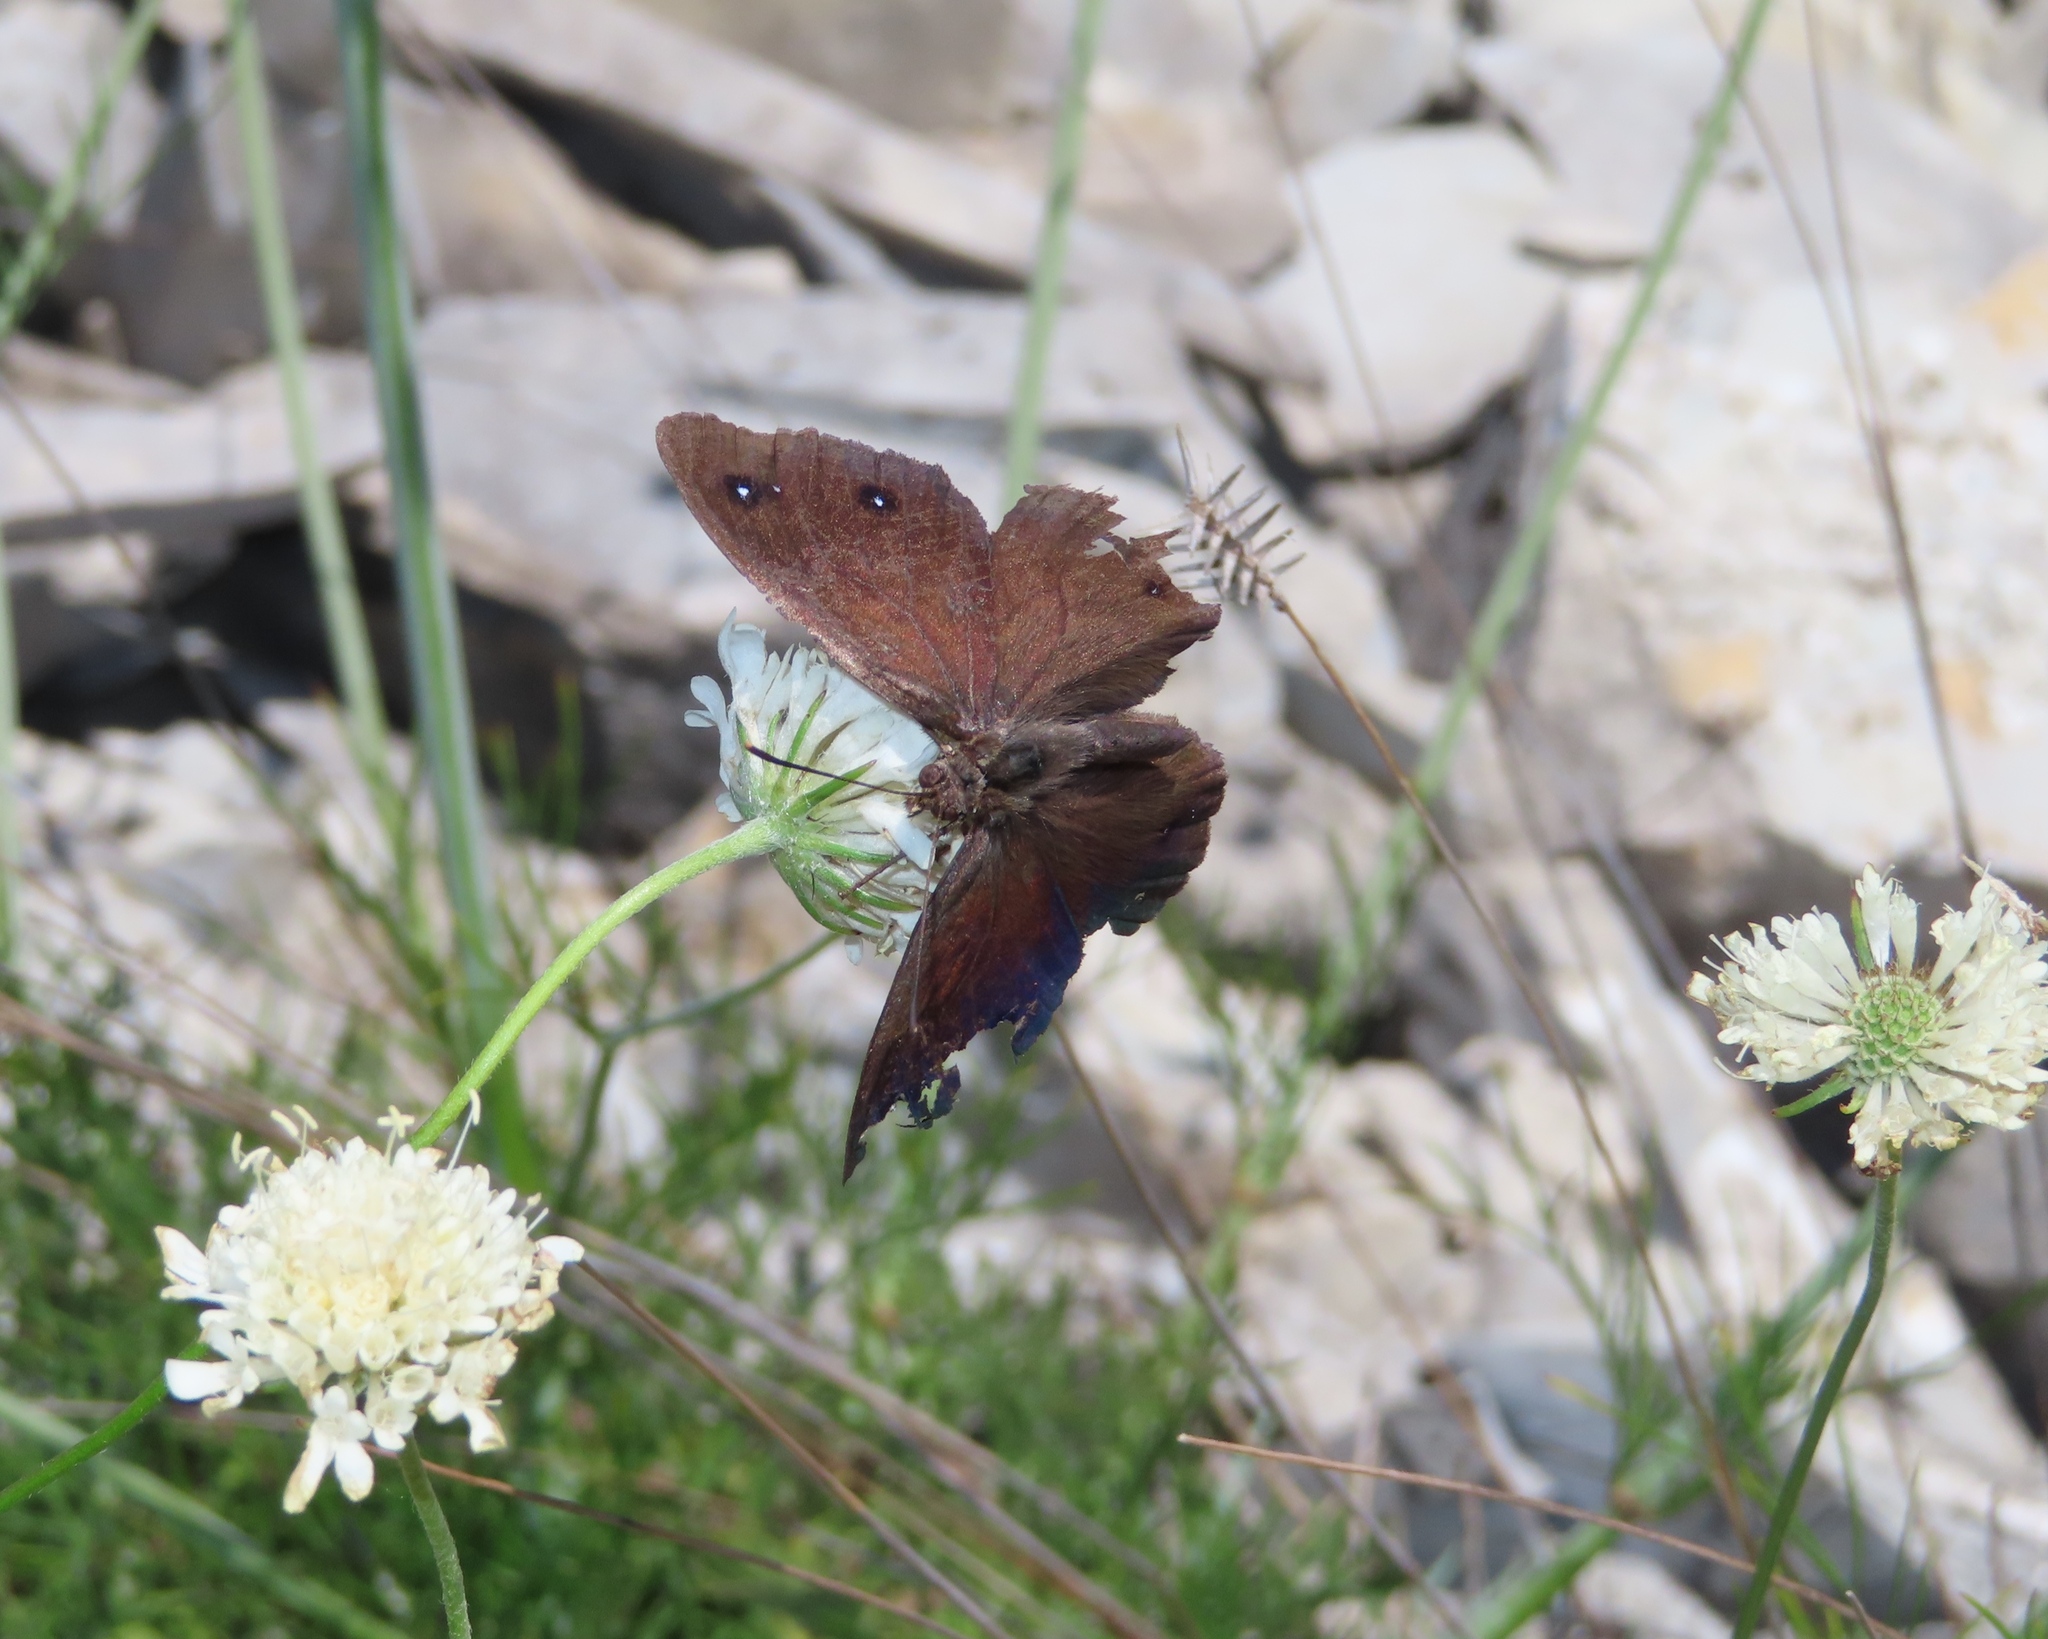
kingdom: Animalia
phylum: Arthropoda
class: Insecta
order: Lepidoptera
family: Nymphalidae
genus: Satyrus
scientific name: Satyrus ferula
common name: Great sooty satyr
